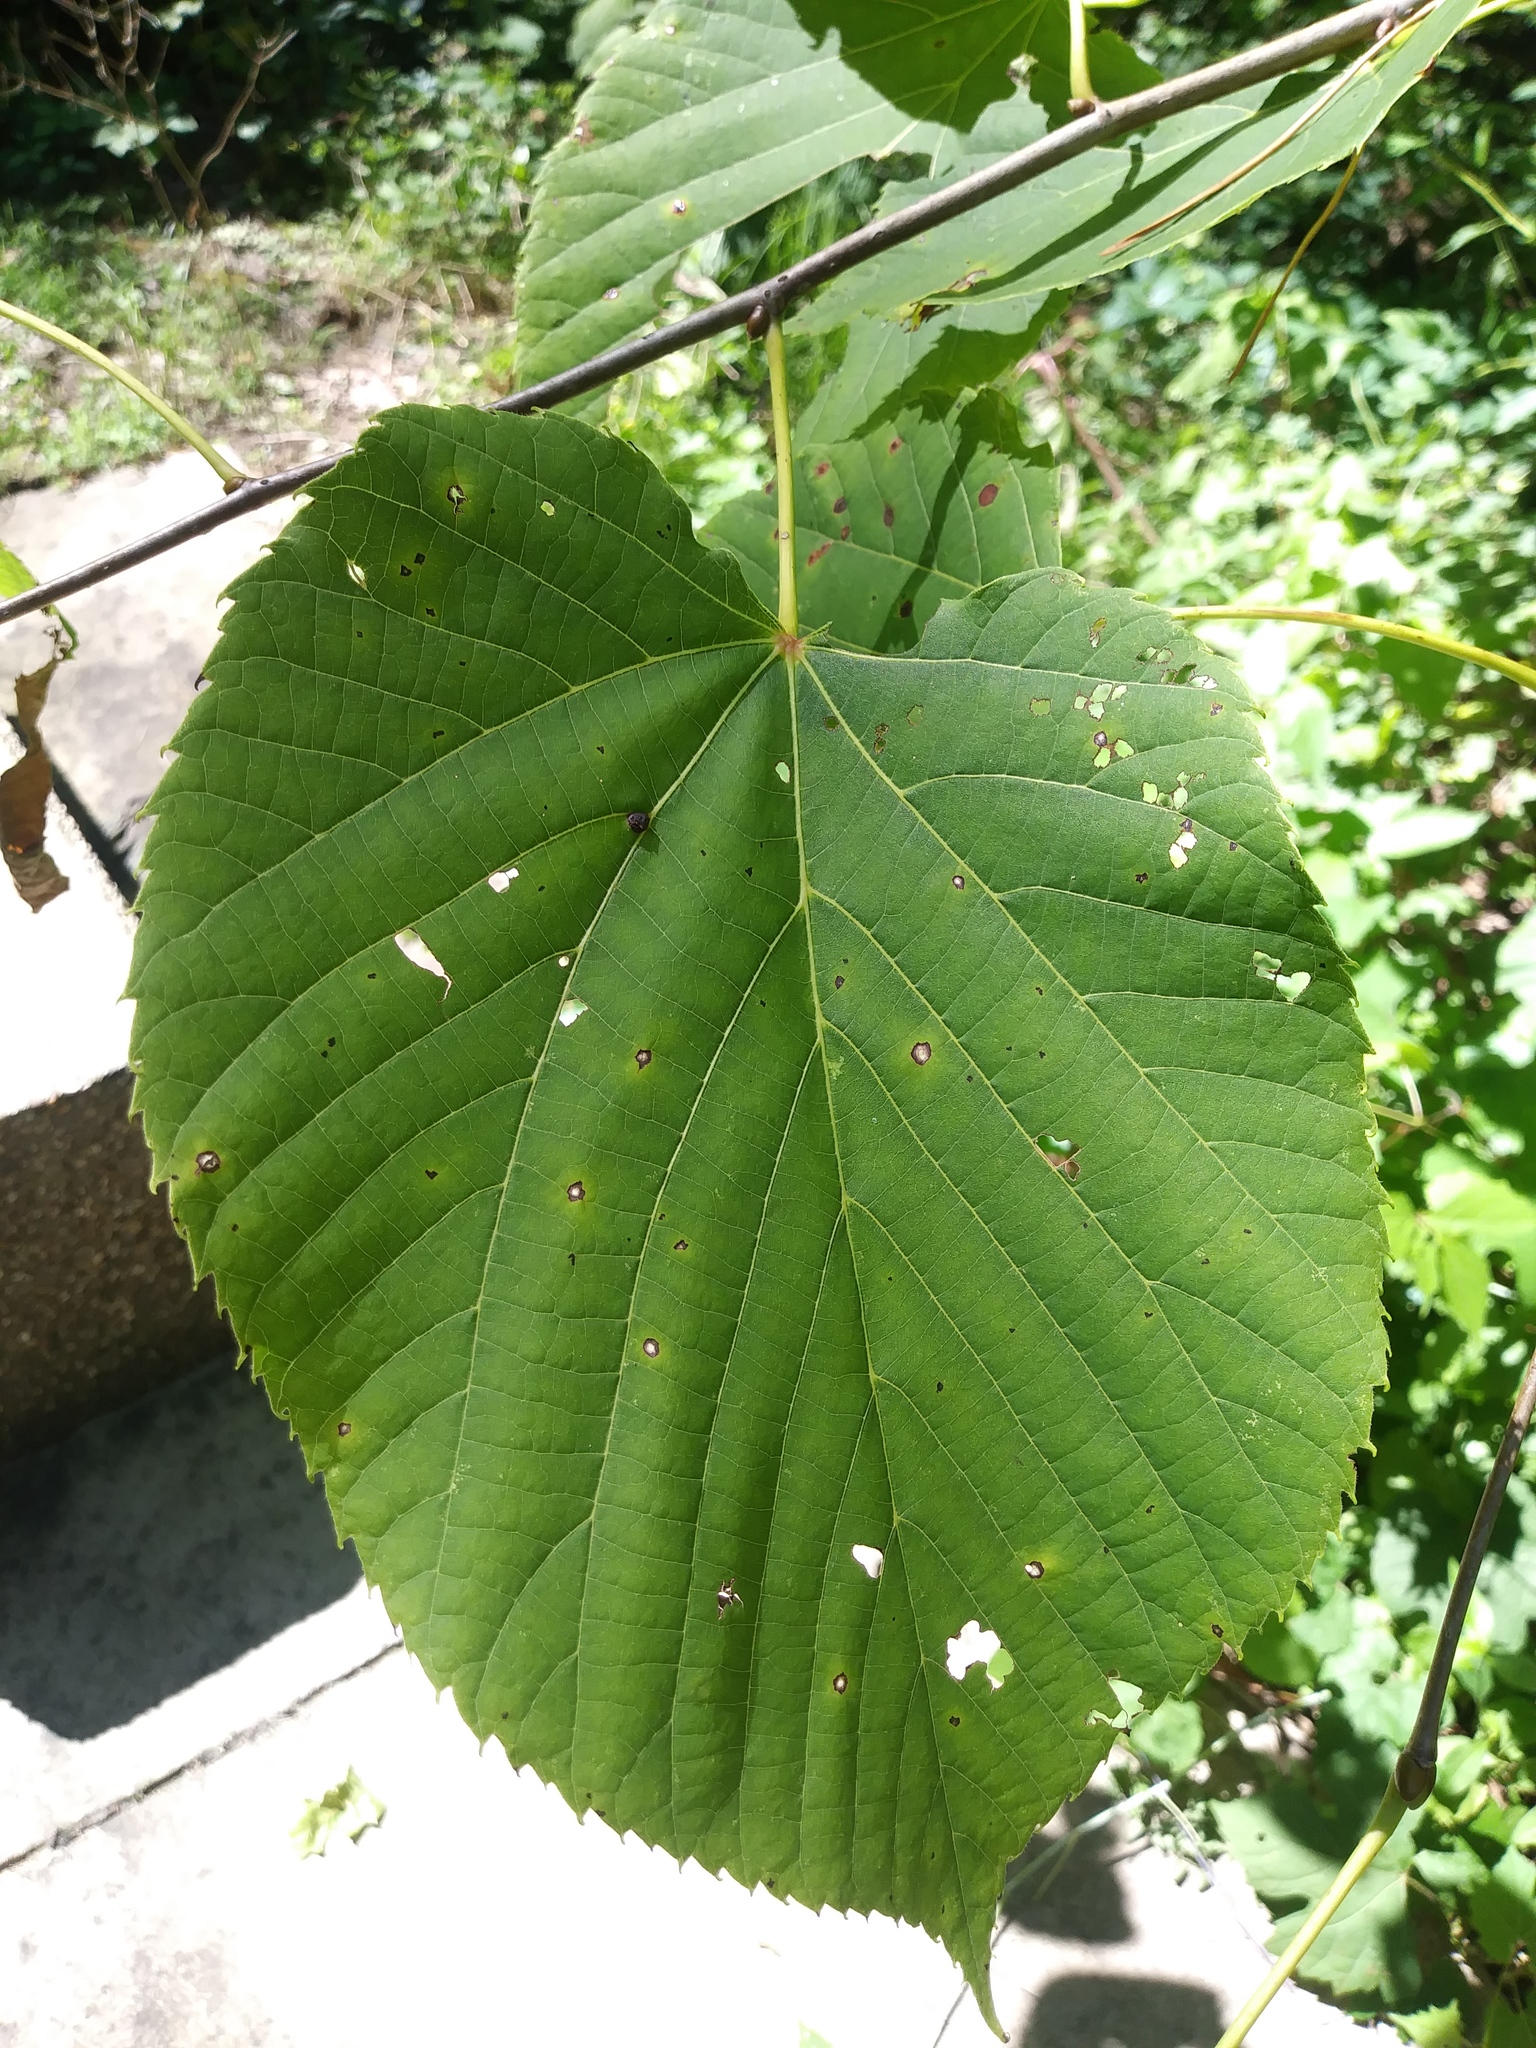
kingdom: Plantae
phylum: Tracheophyta
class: Magnoliopsida
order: Malvales
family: Malvaceae
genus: Tilia
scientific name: Tilia americana
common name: Basswood
